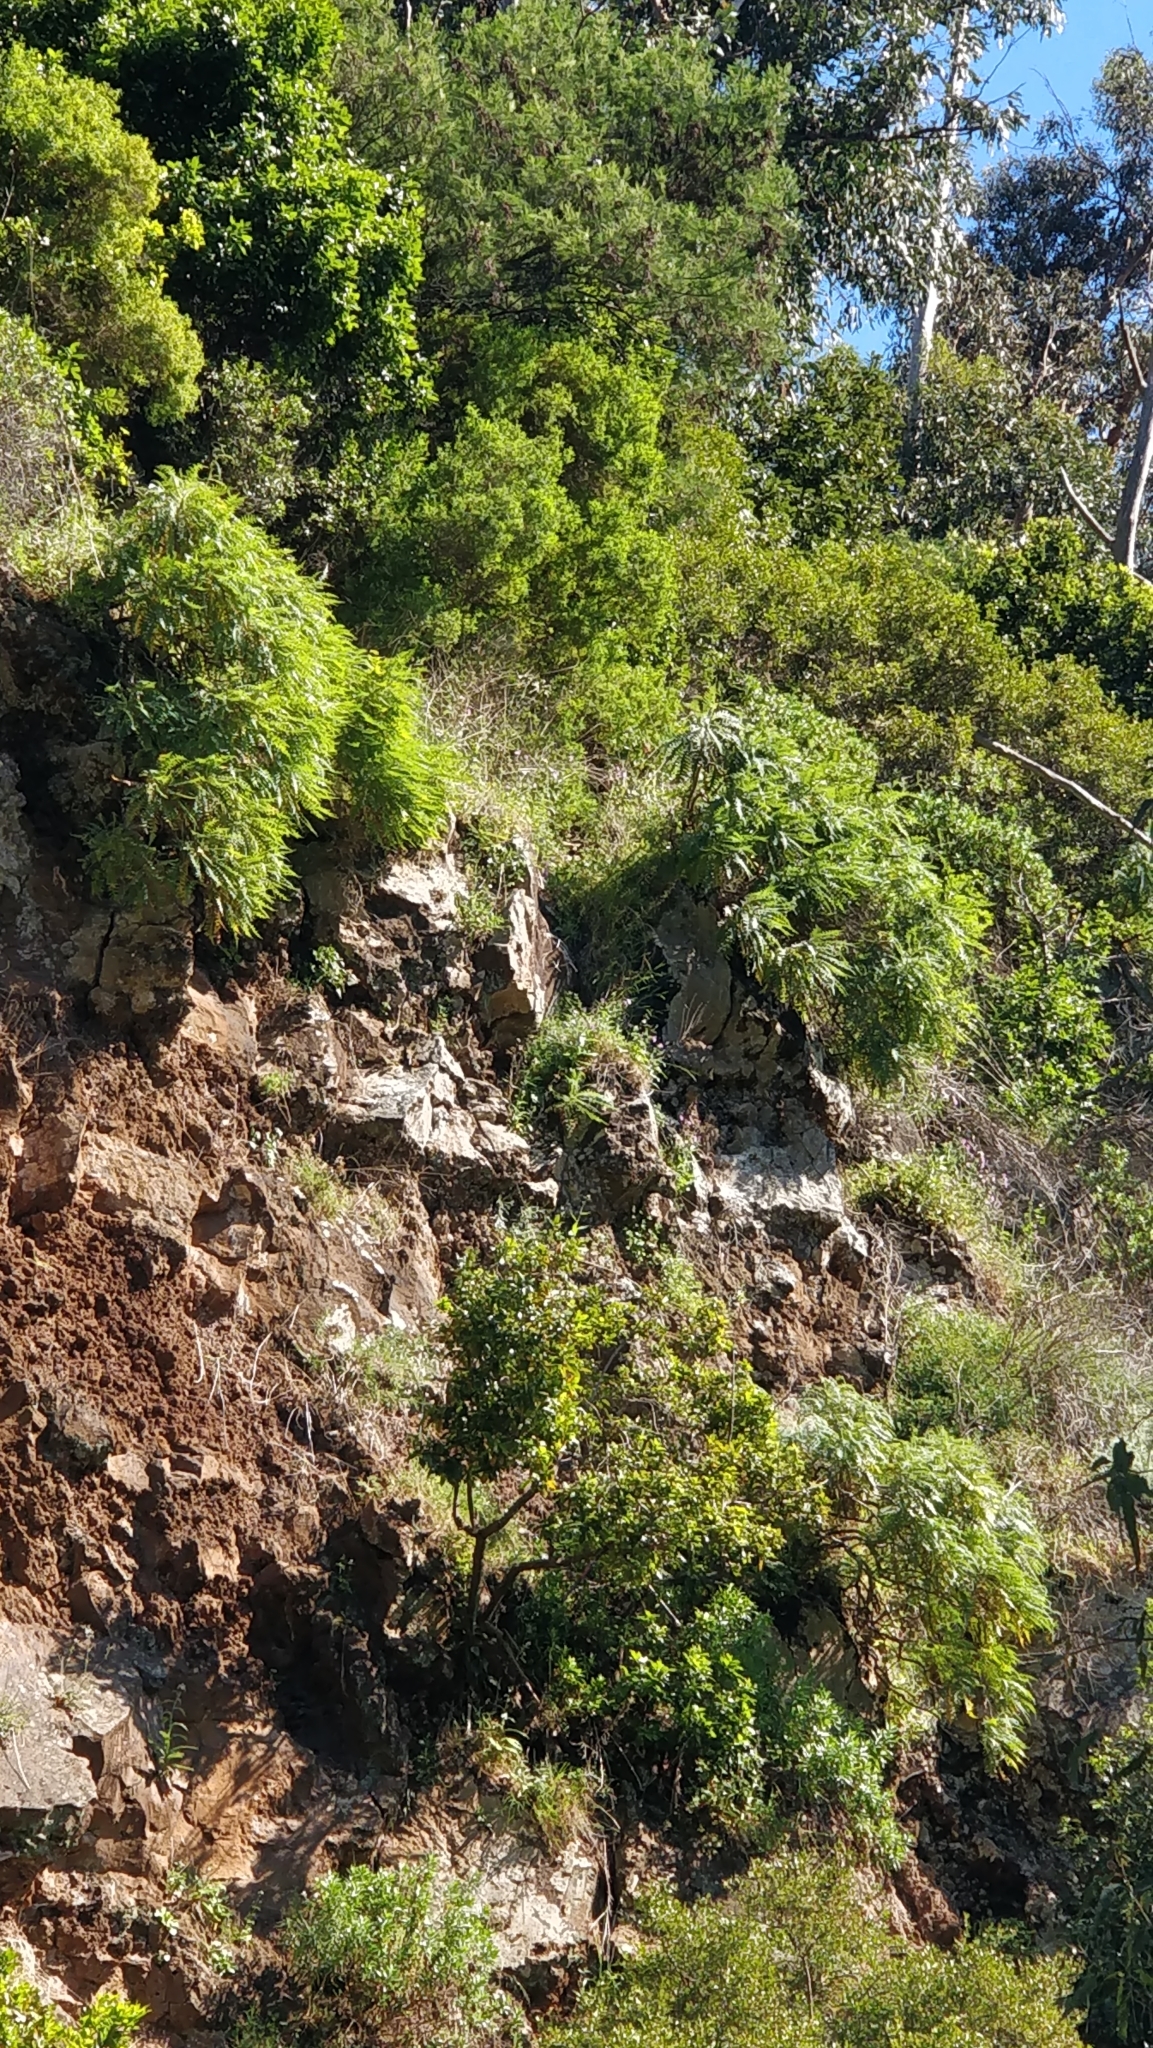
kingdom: Plantae
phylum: Tracheophyta
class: Magnoliopsida
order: Asterales
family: Asteraceae
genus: Sonchus
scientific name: Sonchus pinnatus
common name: Wing-leaved sow-thistle
